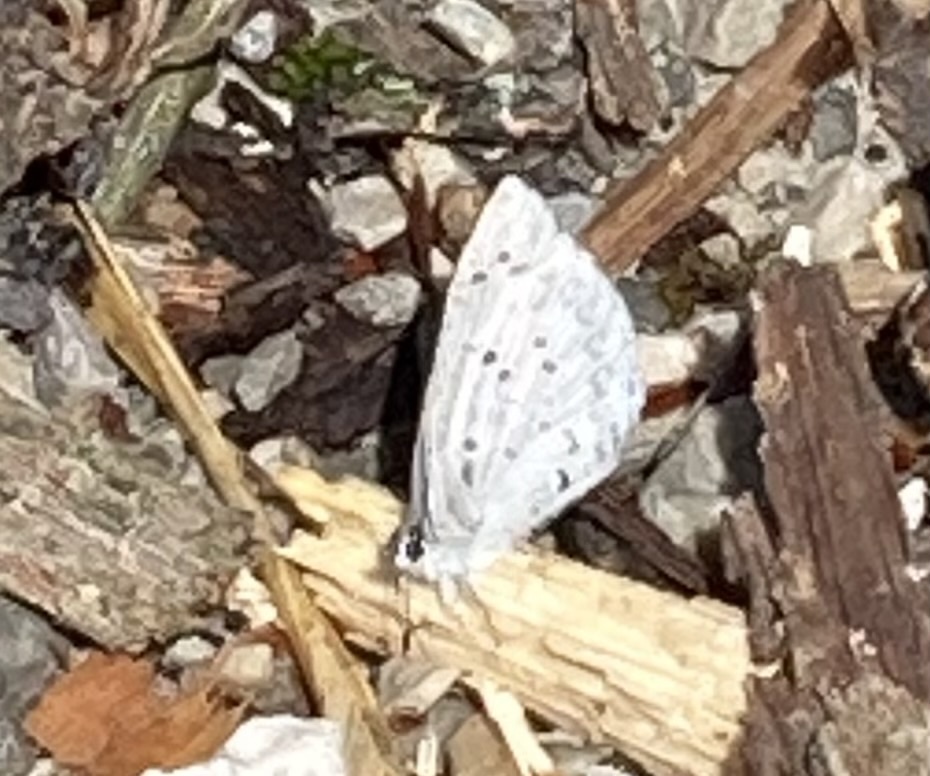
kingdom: Animalia
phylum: Arthropoda
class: Insecta
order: Lepidoptera
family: Lycaenidae
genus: Celastrina
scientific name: Celastrina ladon
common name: Spring azure
